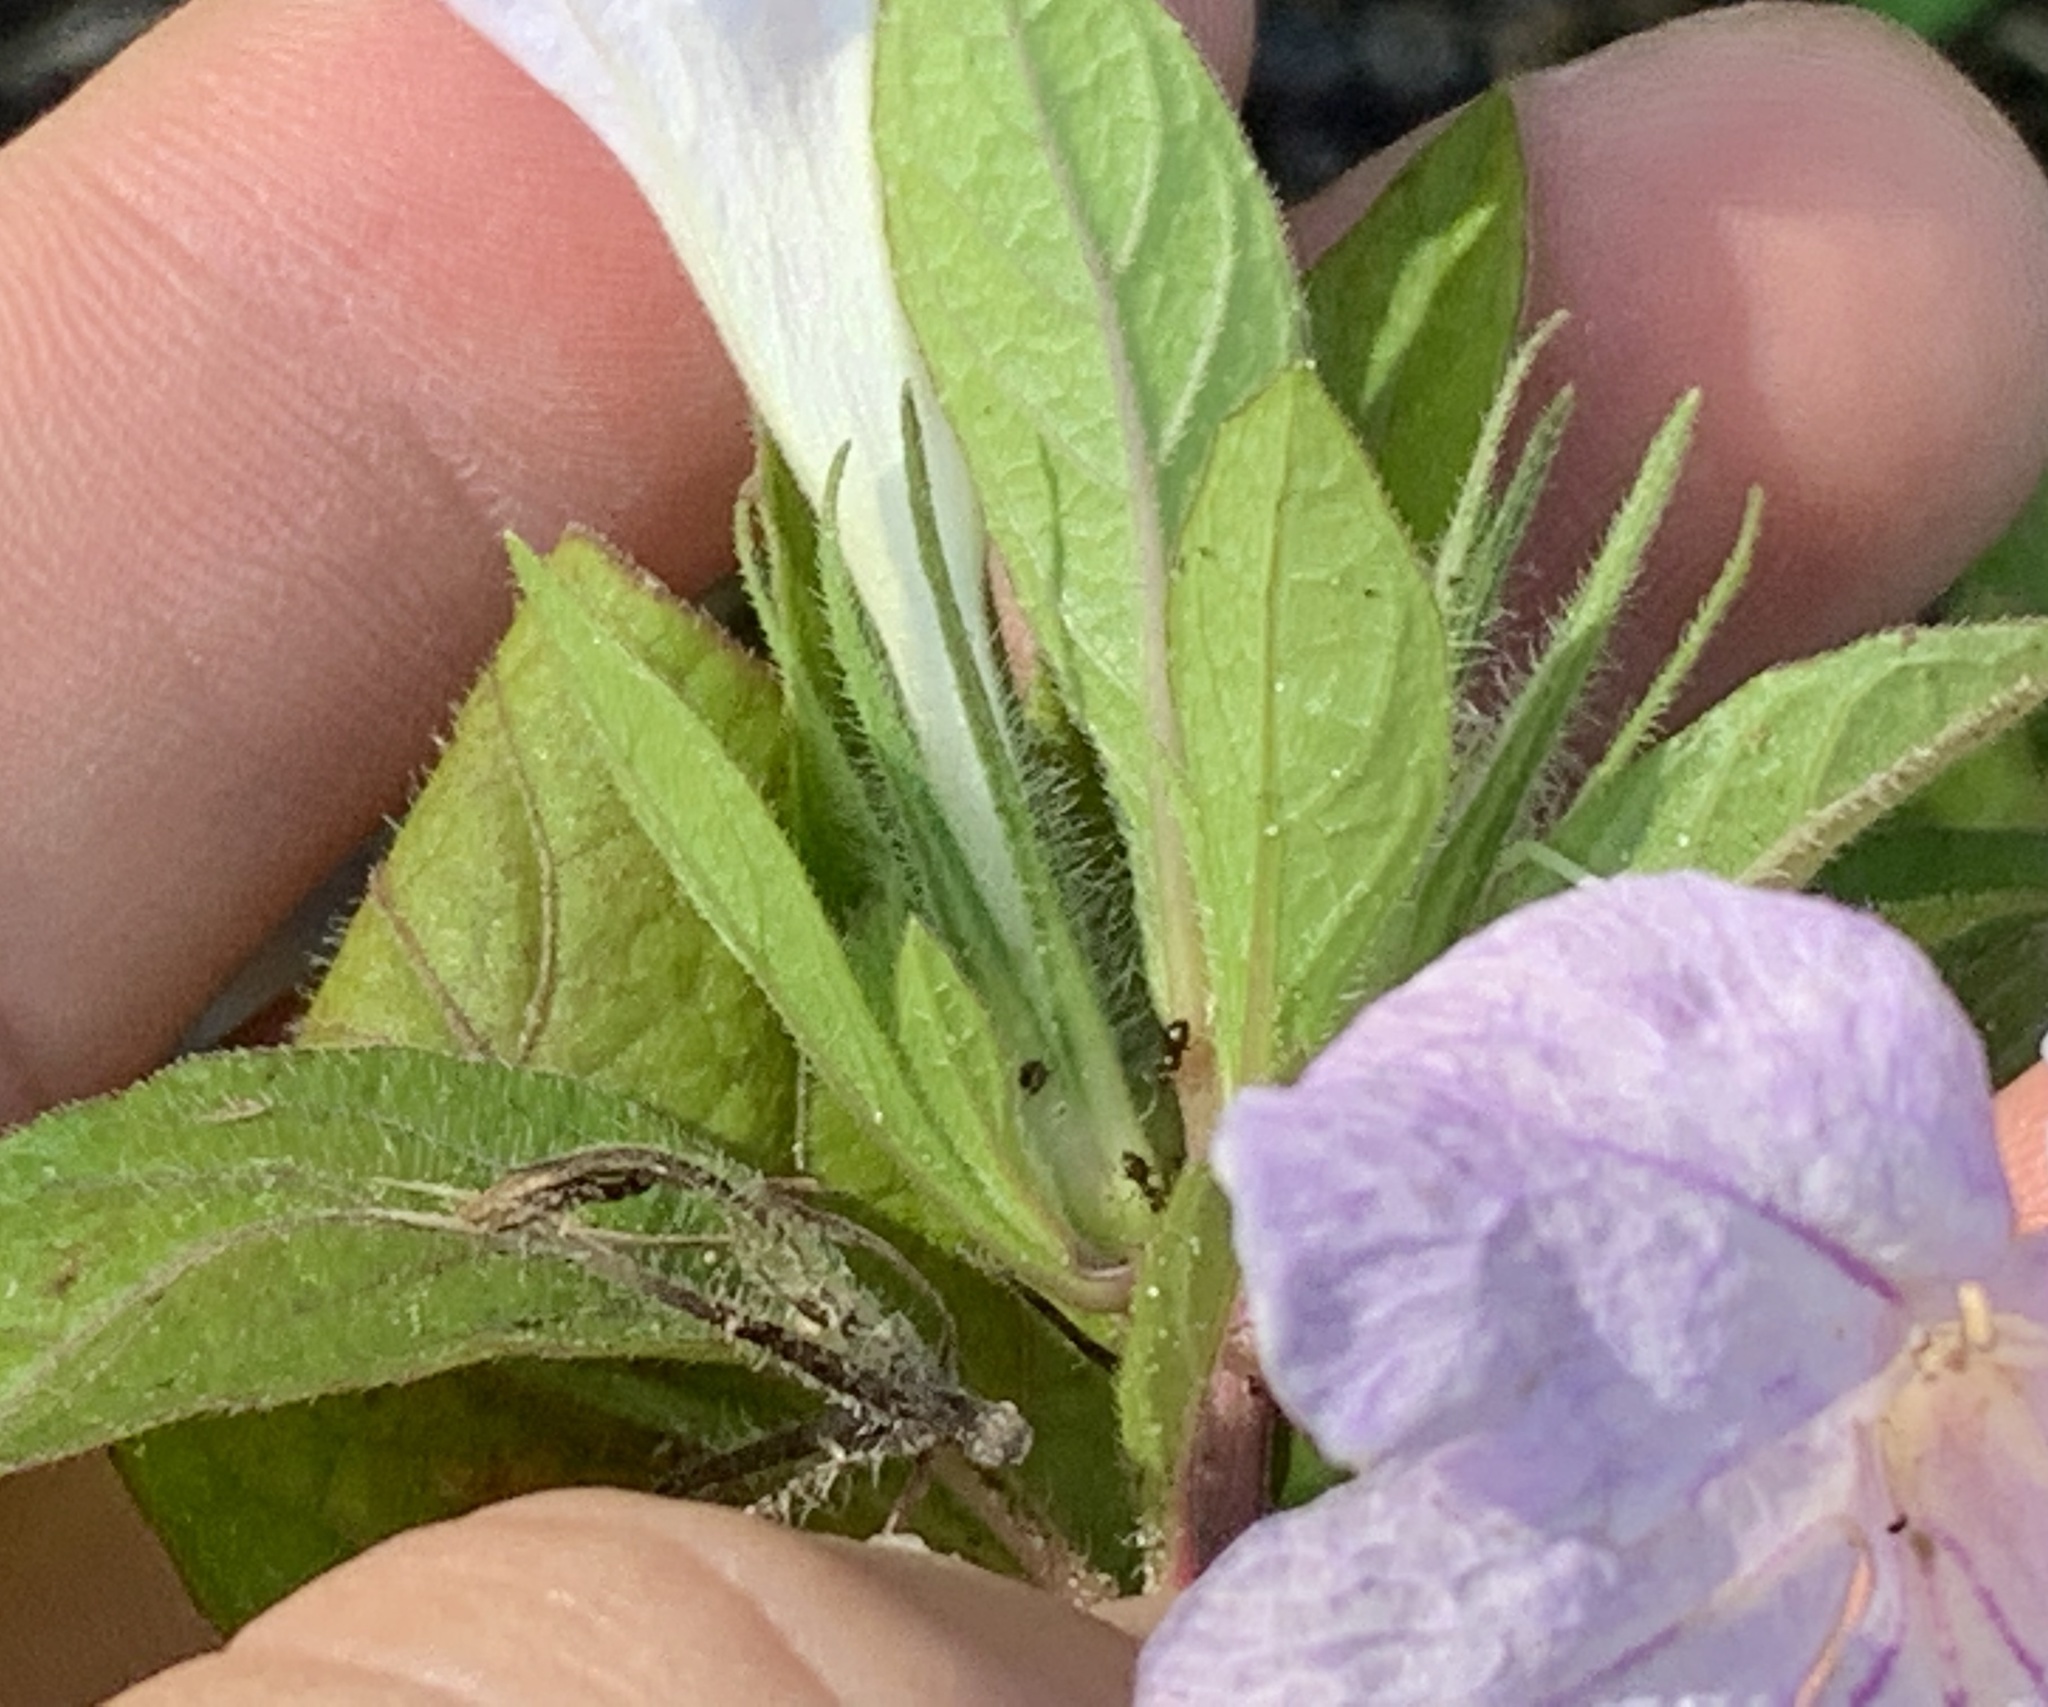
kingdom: Plantae
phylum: Tracheophyta
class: Magnoliopsida
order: Lamiales
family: Acanthaceae
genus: Ruellia
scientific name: Ruellia caroliniensis
